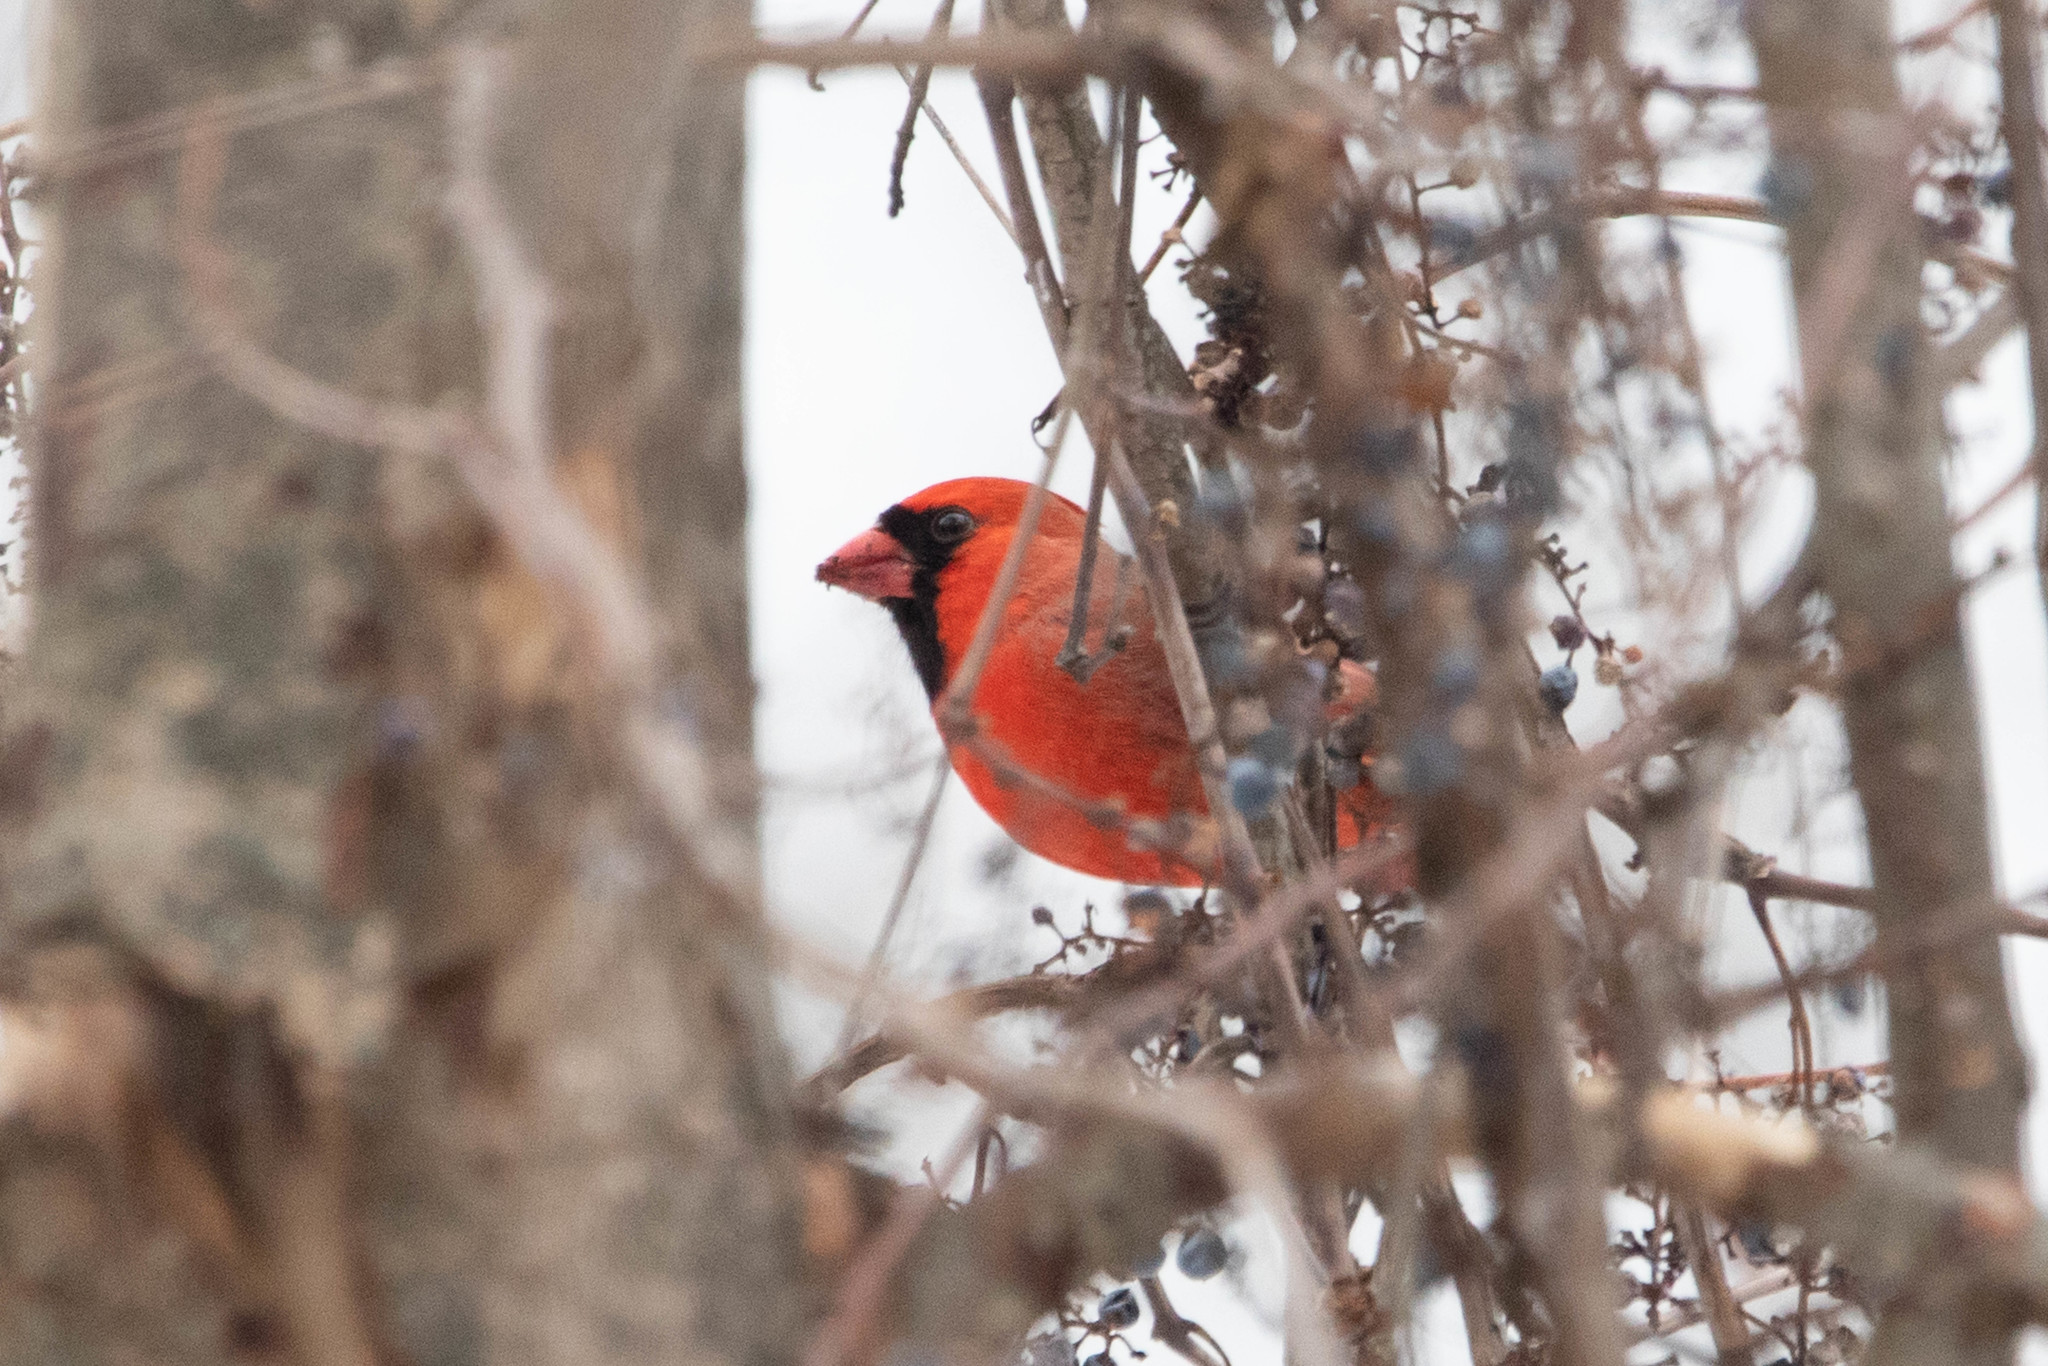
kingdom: Animalia
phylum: Chordata
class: Aves
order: Passeriformes
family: Cardinalidae
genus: Cardinalis
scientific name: Cardinalis cardinalis
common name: Northern cardinal
